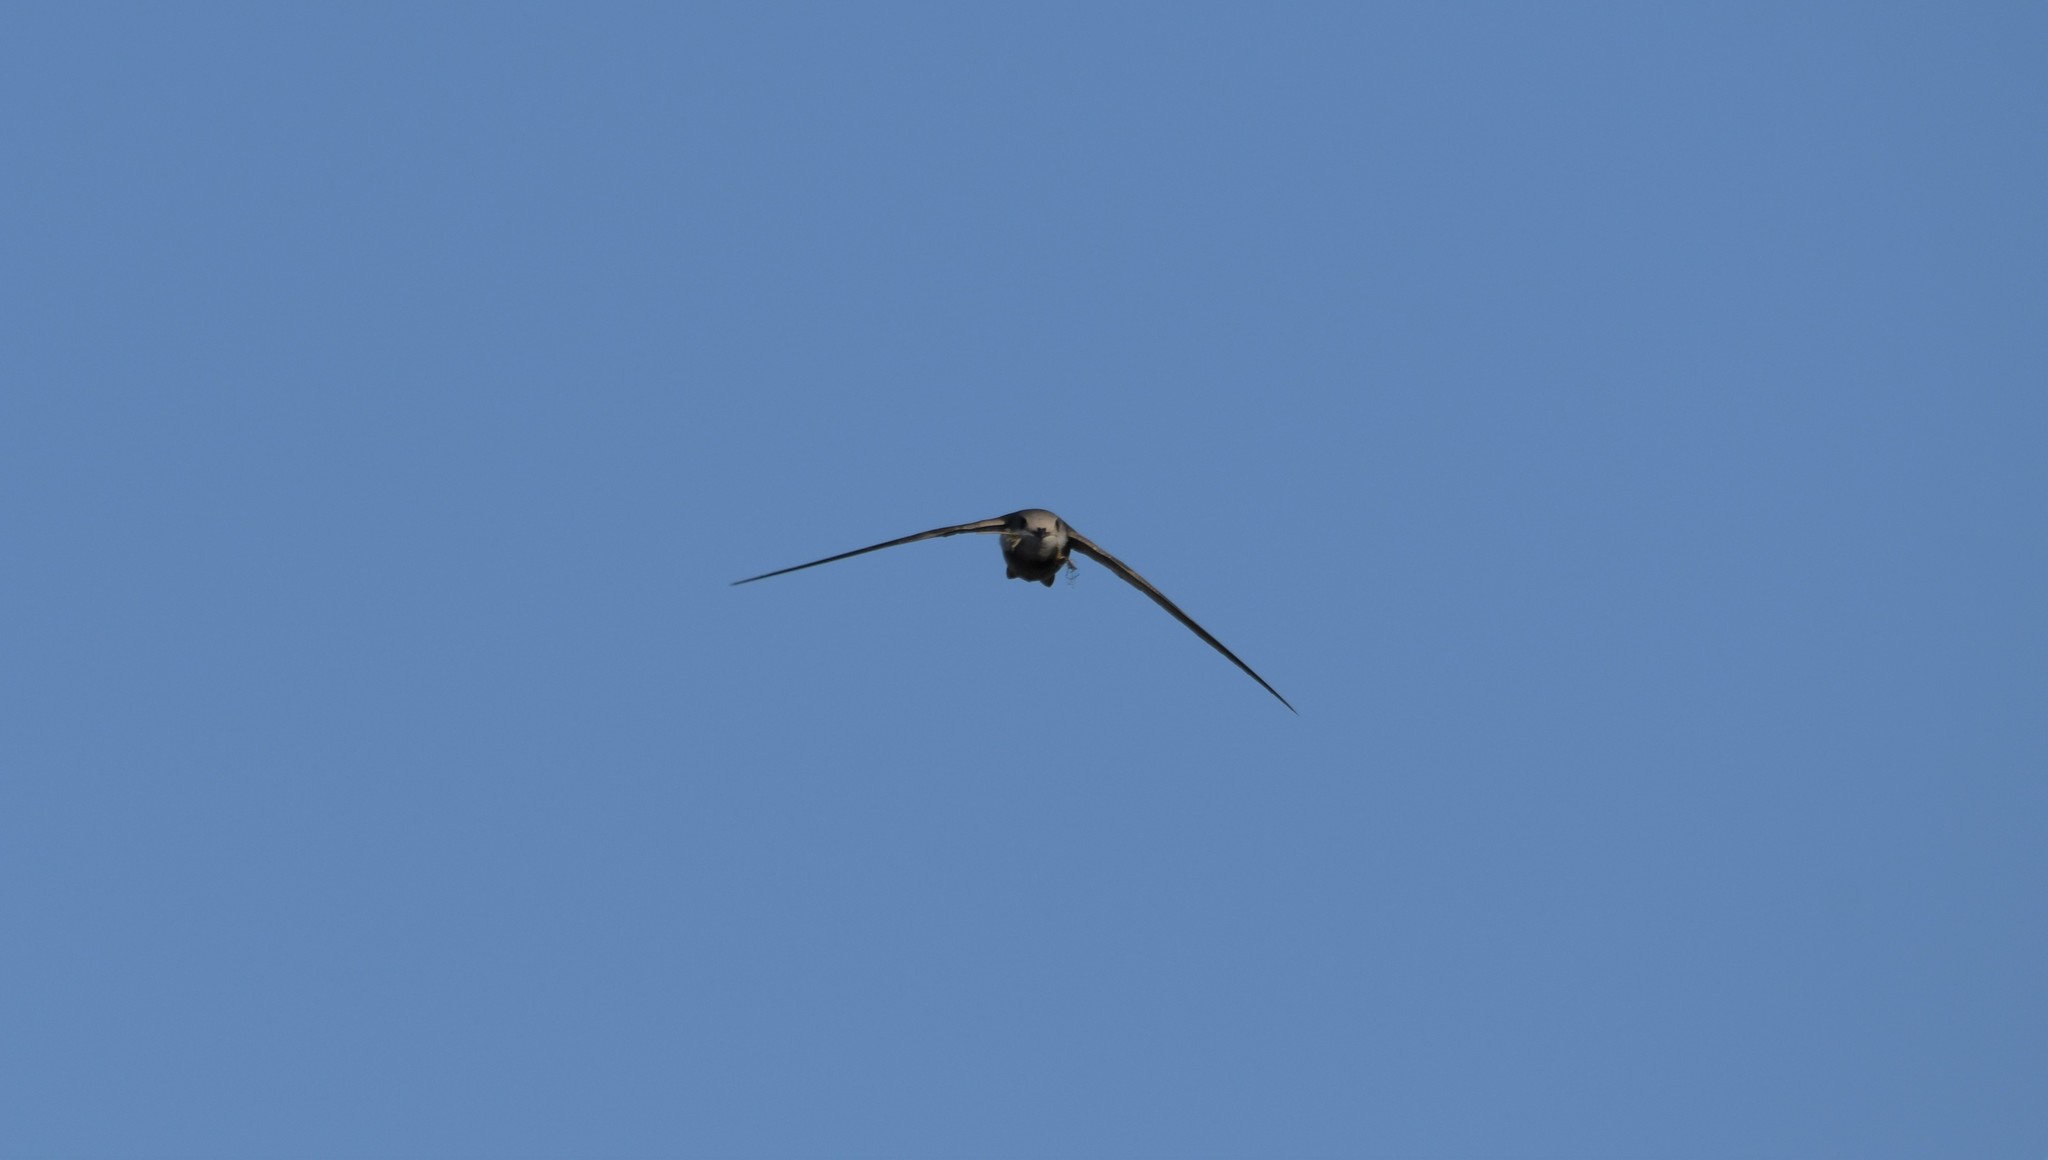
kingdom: Animalia
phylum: Chordata
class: Aves
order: Apodiformes
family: Apodidae
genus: Apus
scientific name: Apus pallidus
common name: Pallid swift
